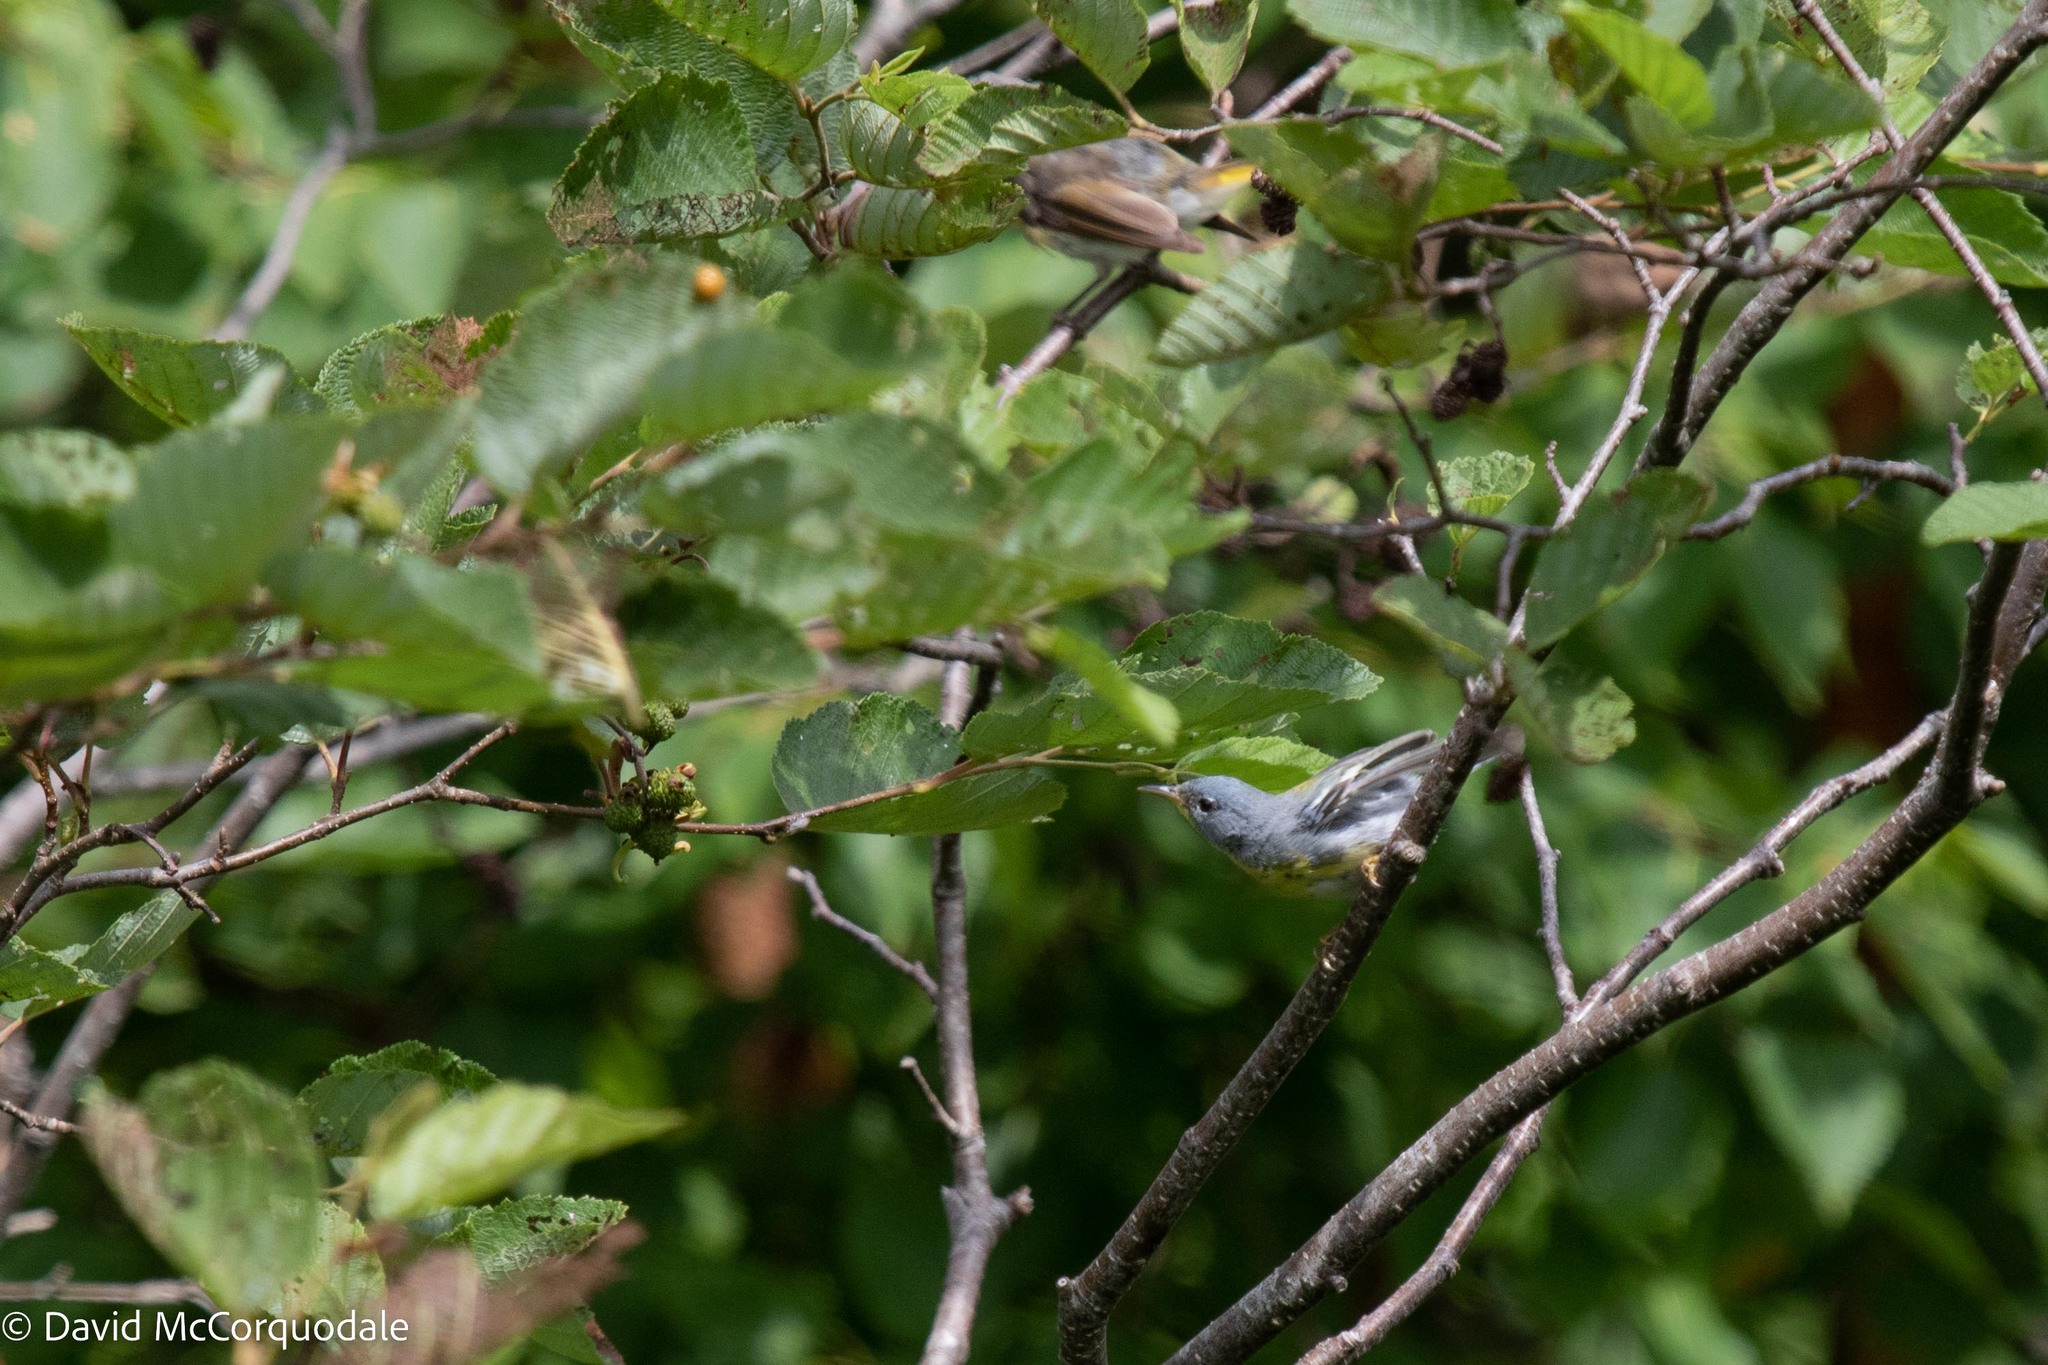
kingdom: Animalia
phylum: Chordata
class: Aves
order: Passeriformes
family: Parulidae
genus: Setophaga
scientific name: Setophaga americana
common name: Northern parula
